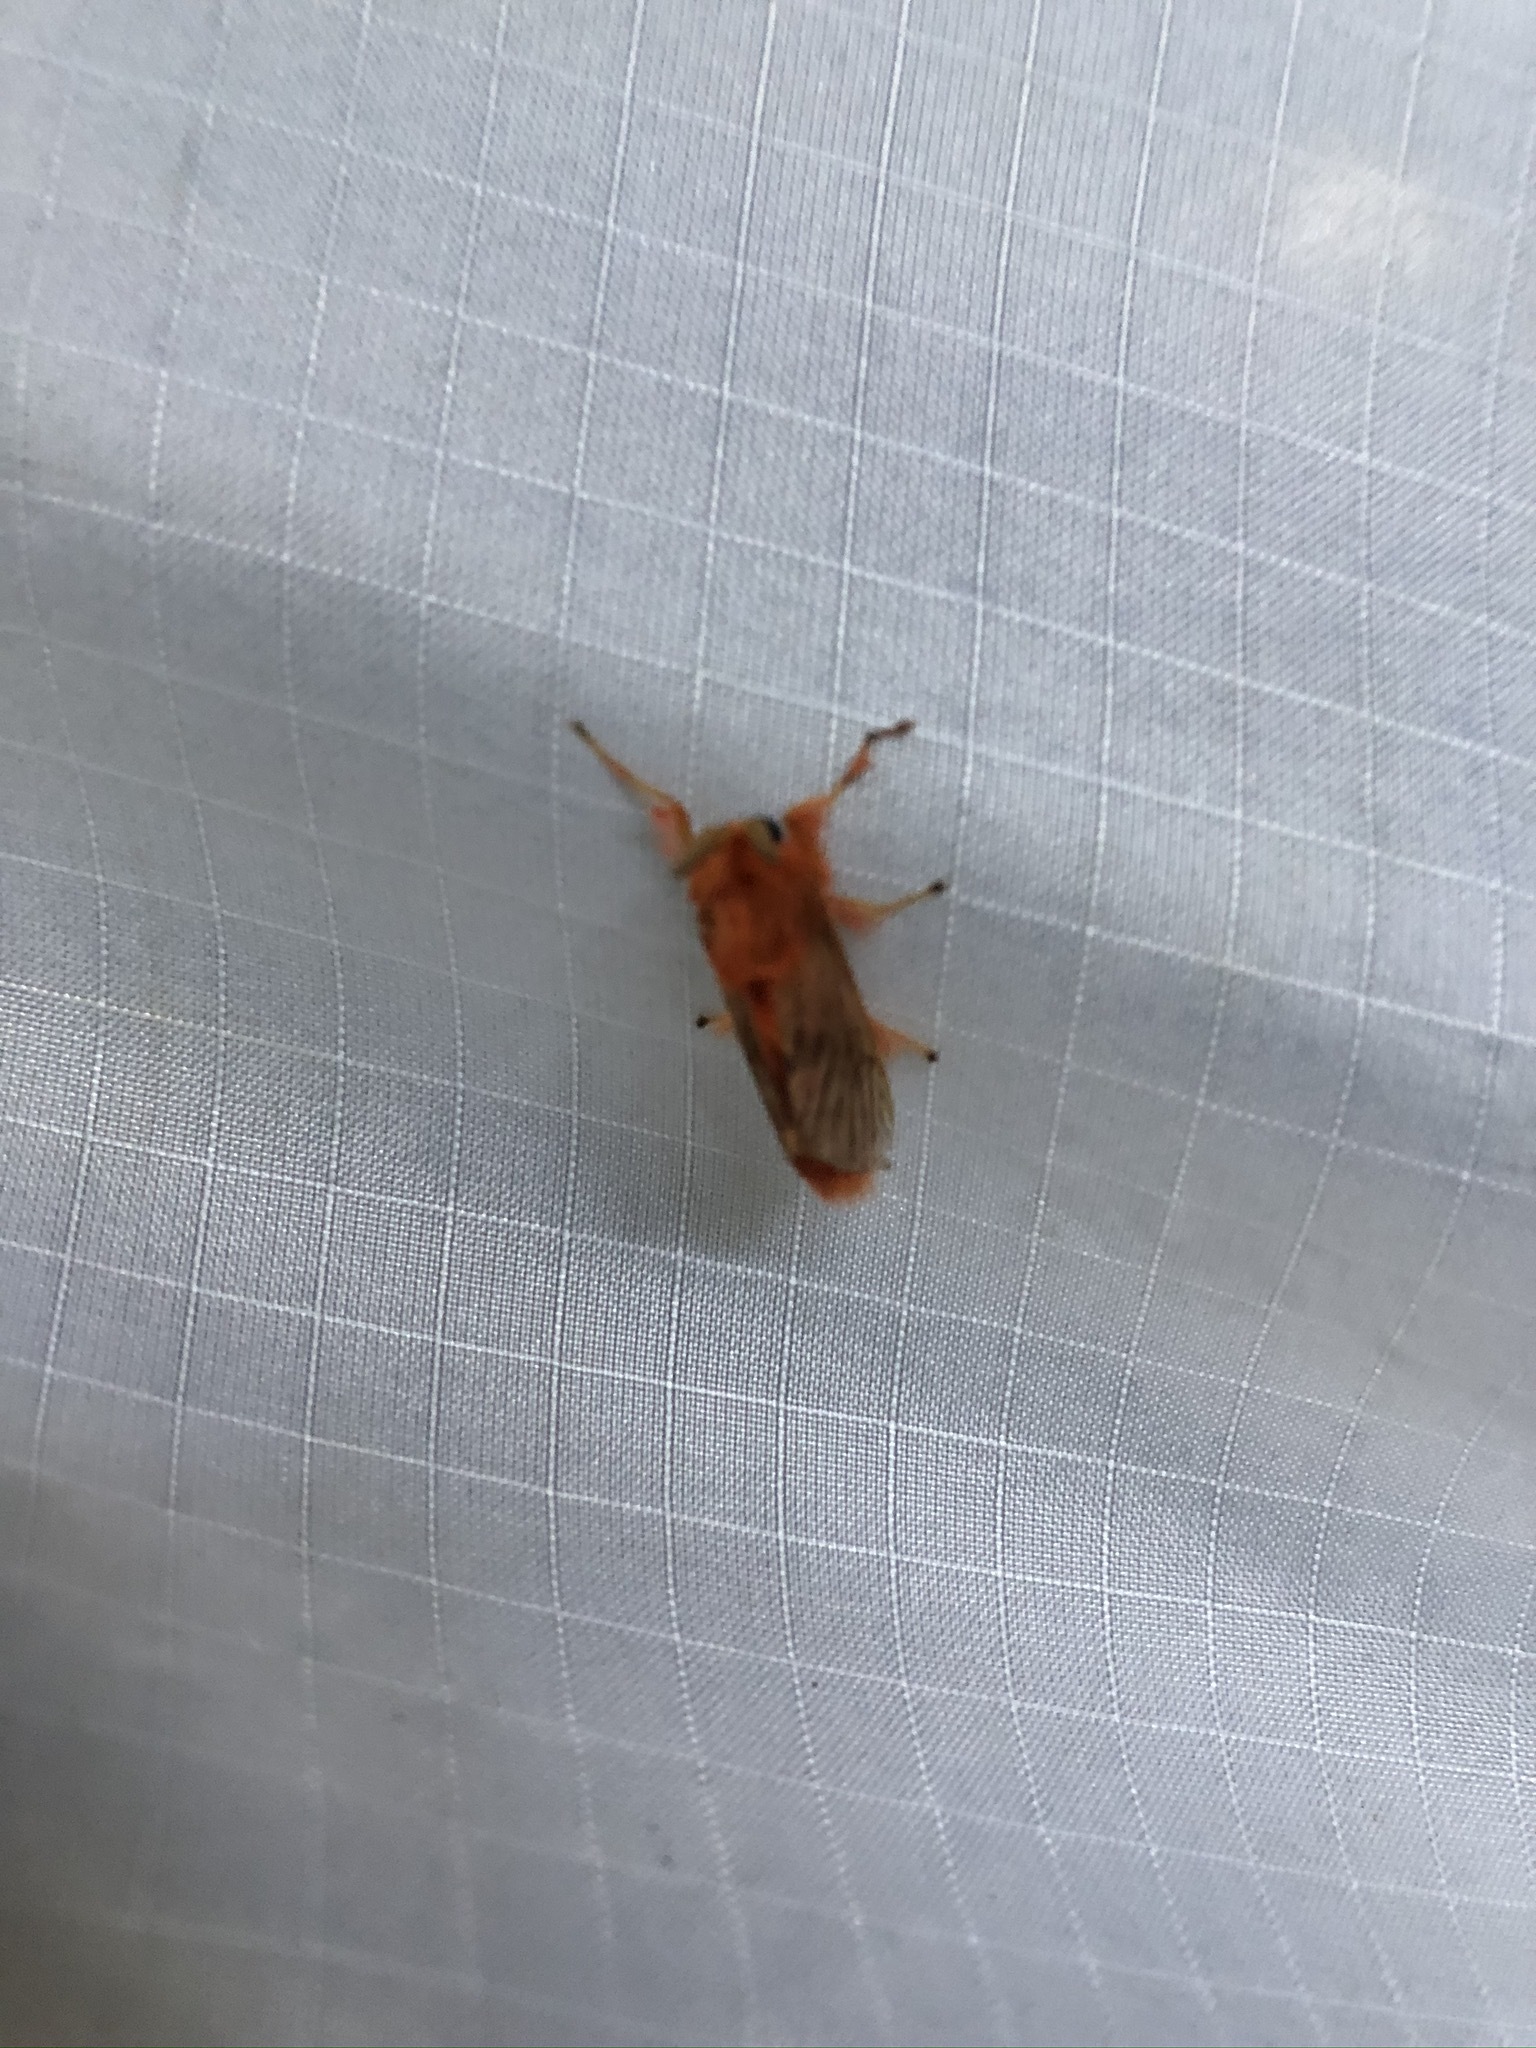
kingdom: Animalia
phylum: Arthropoda
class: Insecta
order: Lepidoptera
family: Megalopygidae
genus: Thoscora
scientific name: Thoscora ribbei
